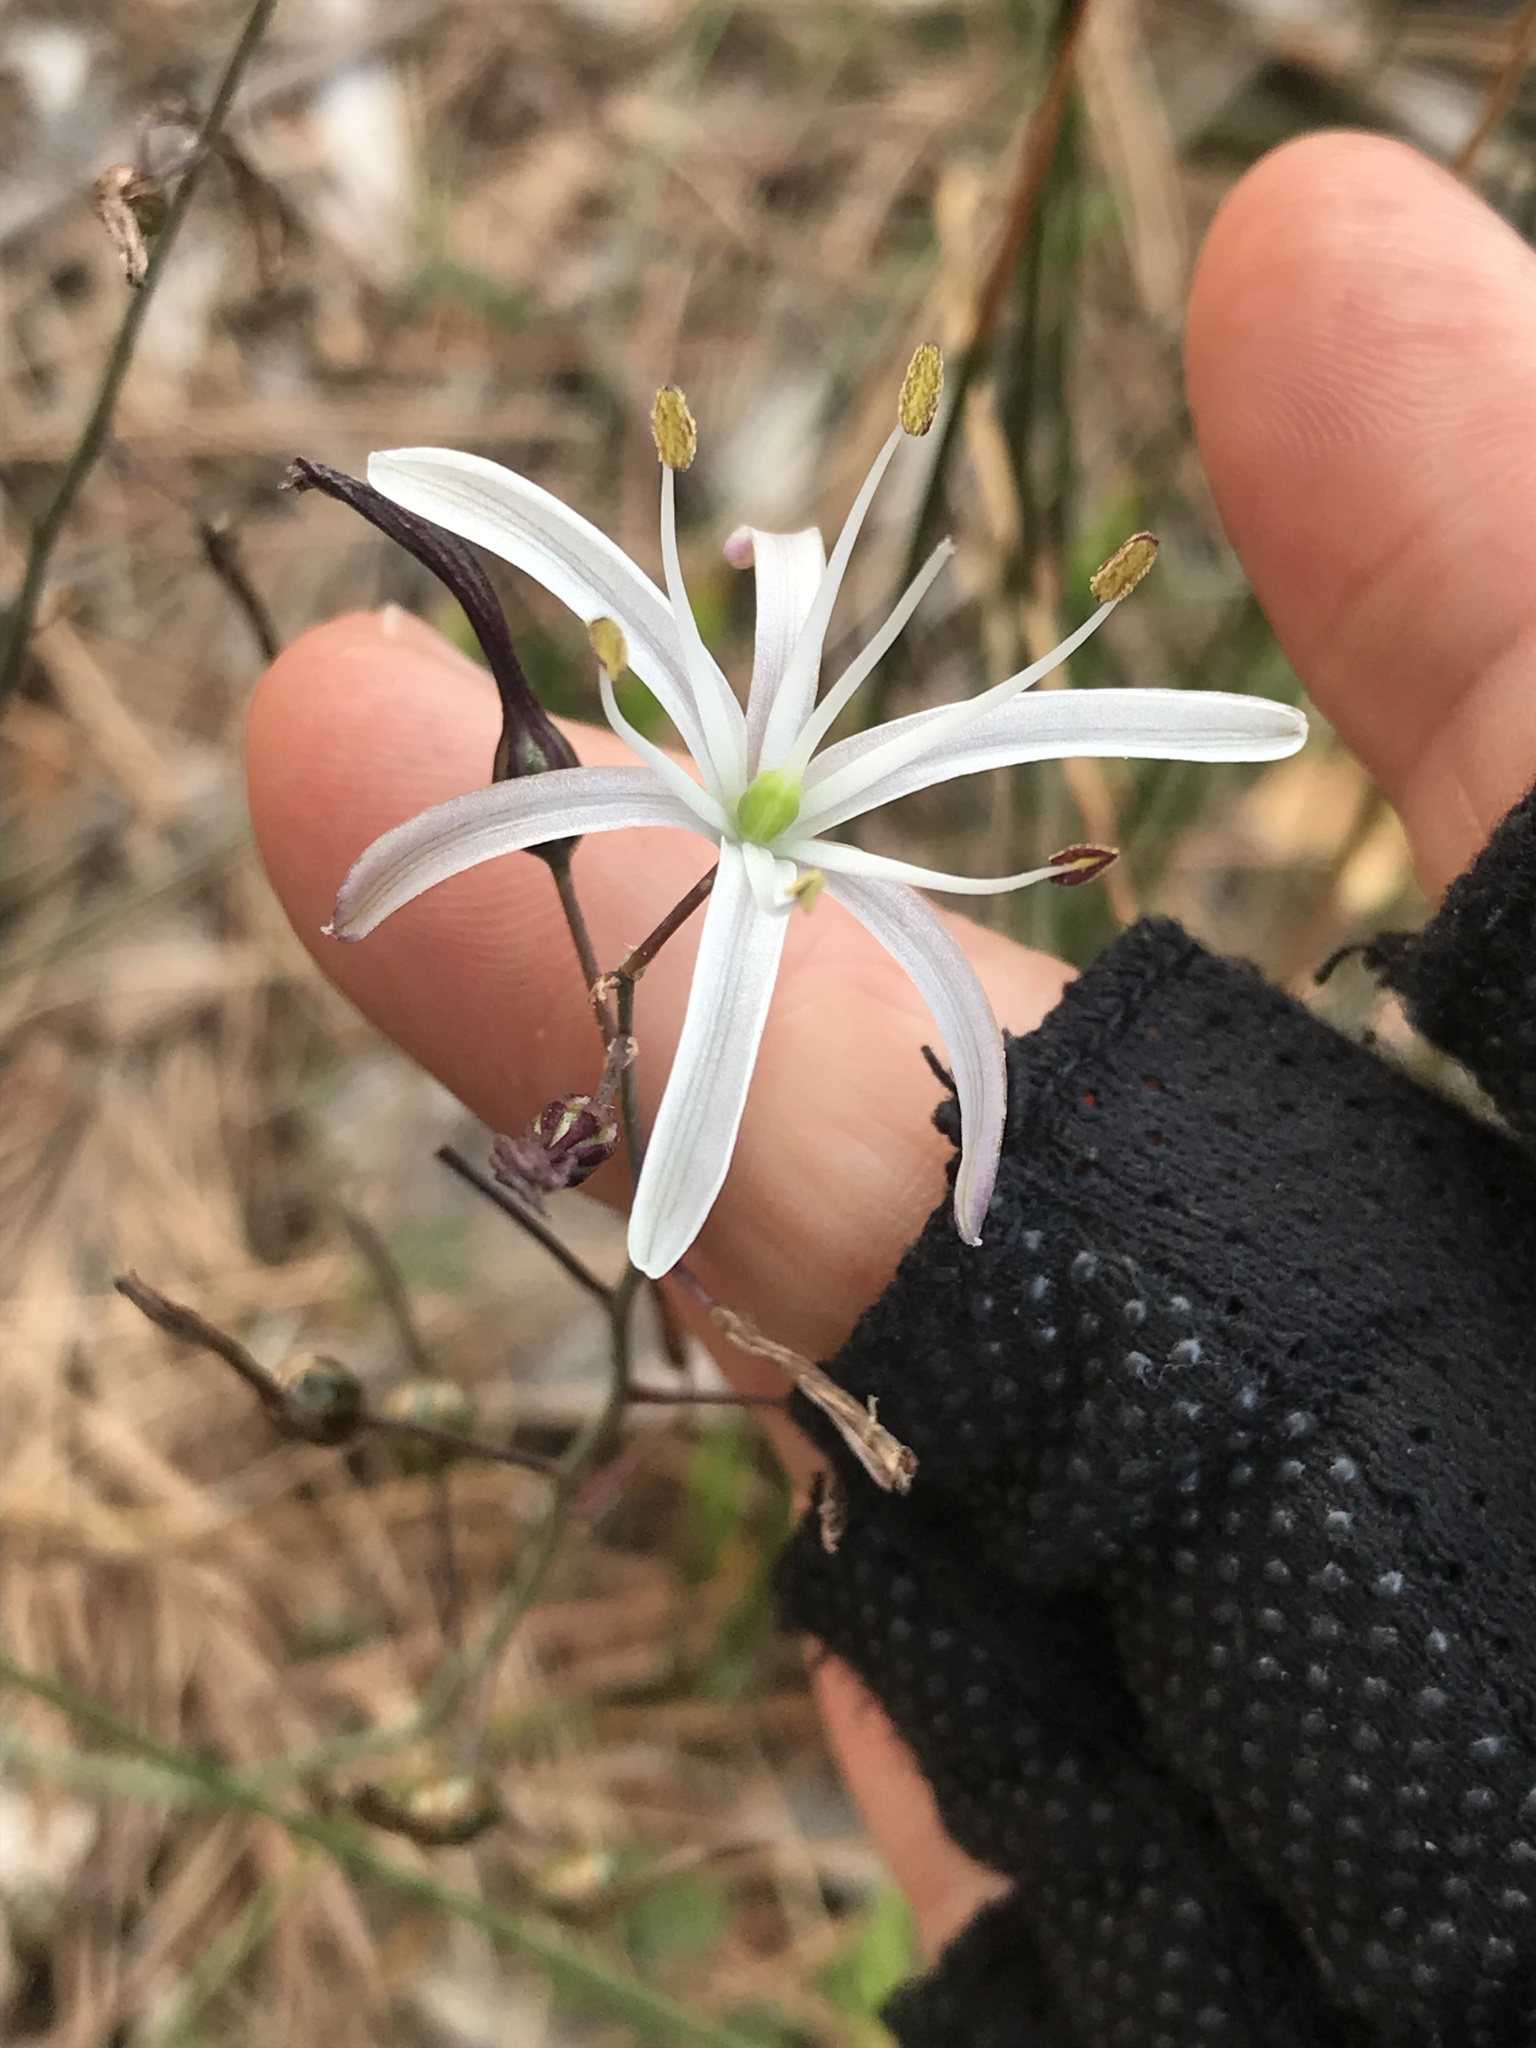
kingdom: Plantae
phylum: Tracheophyta
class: Liliopsida
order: Asparagales
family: Asparagaceae
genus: Chlorogalum
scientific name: Chlorogalum pomeridianum
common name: Amole
